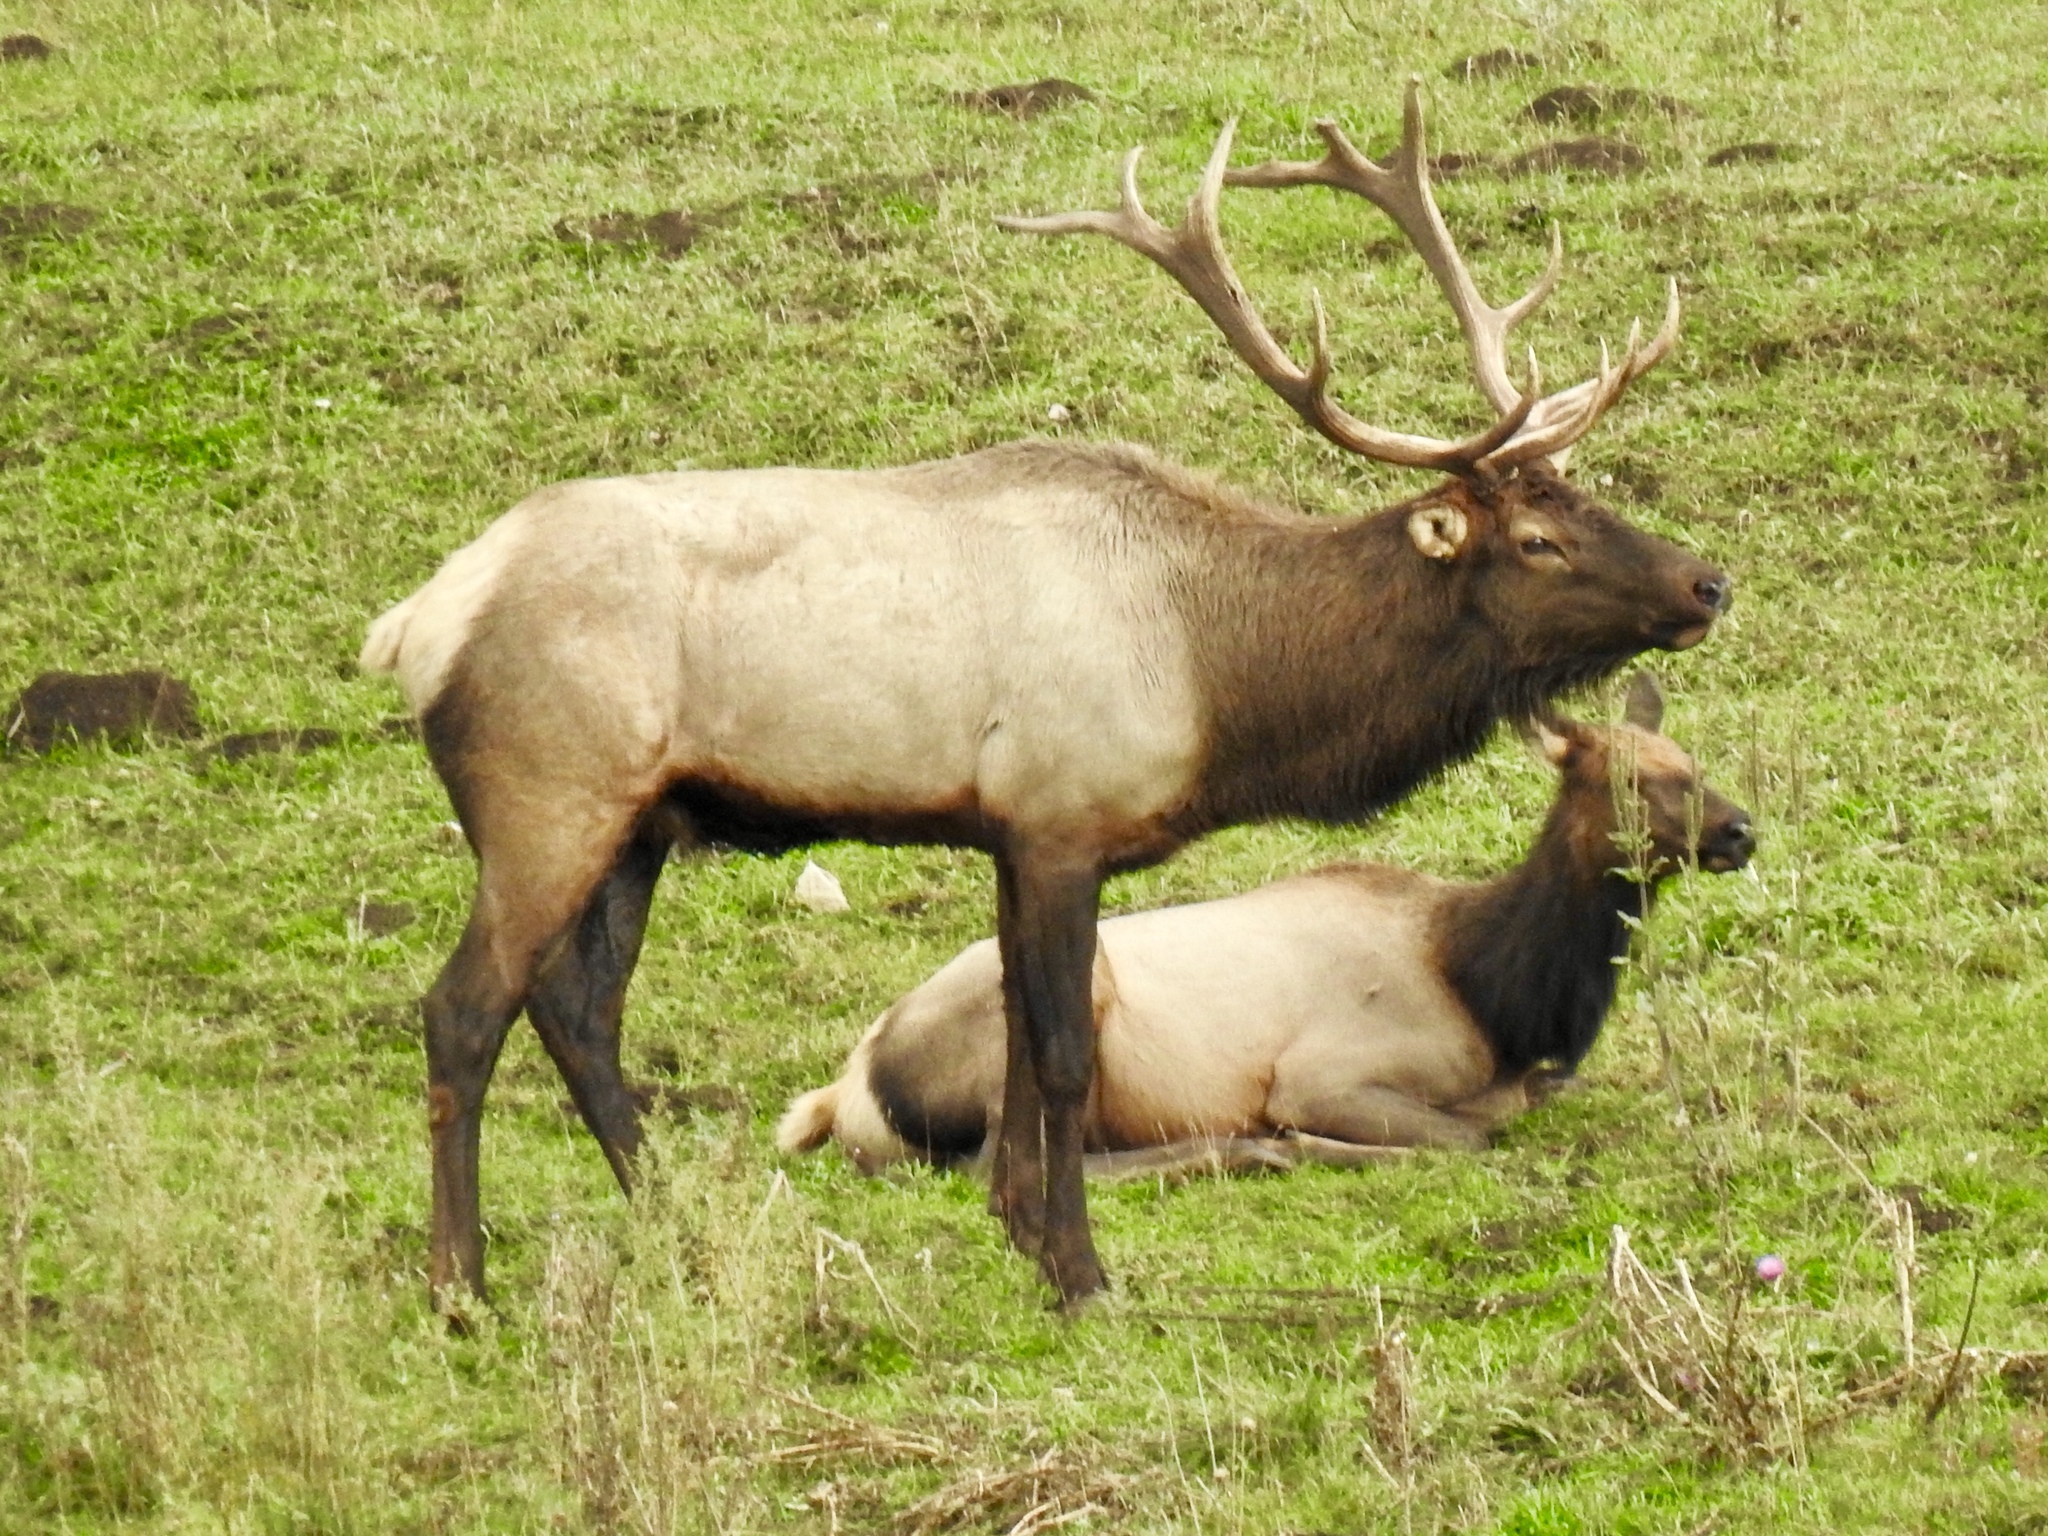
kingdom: Animalia
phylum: Chordata
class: Mammalia
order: Artiodactyla
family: Cervidae
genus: Cervus
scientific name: Cervus elaphus
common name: Red deer
